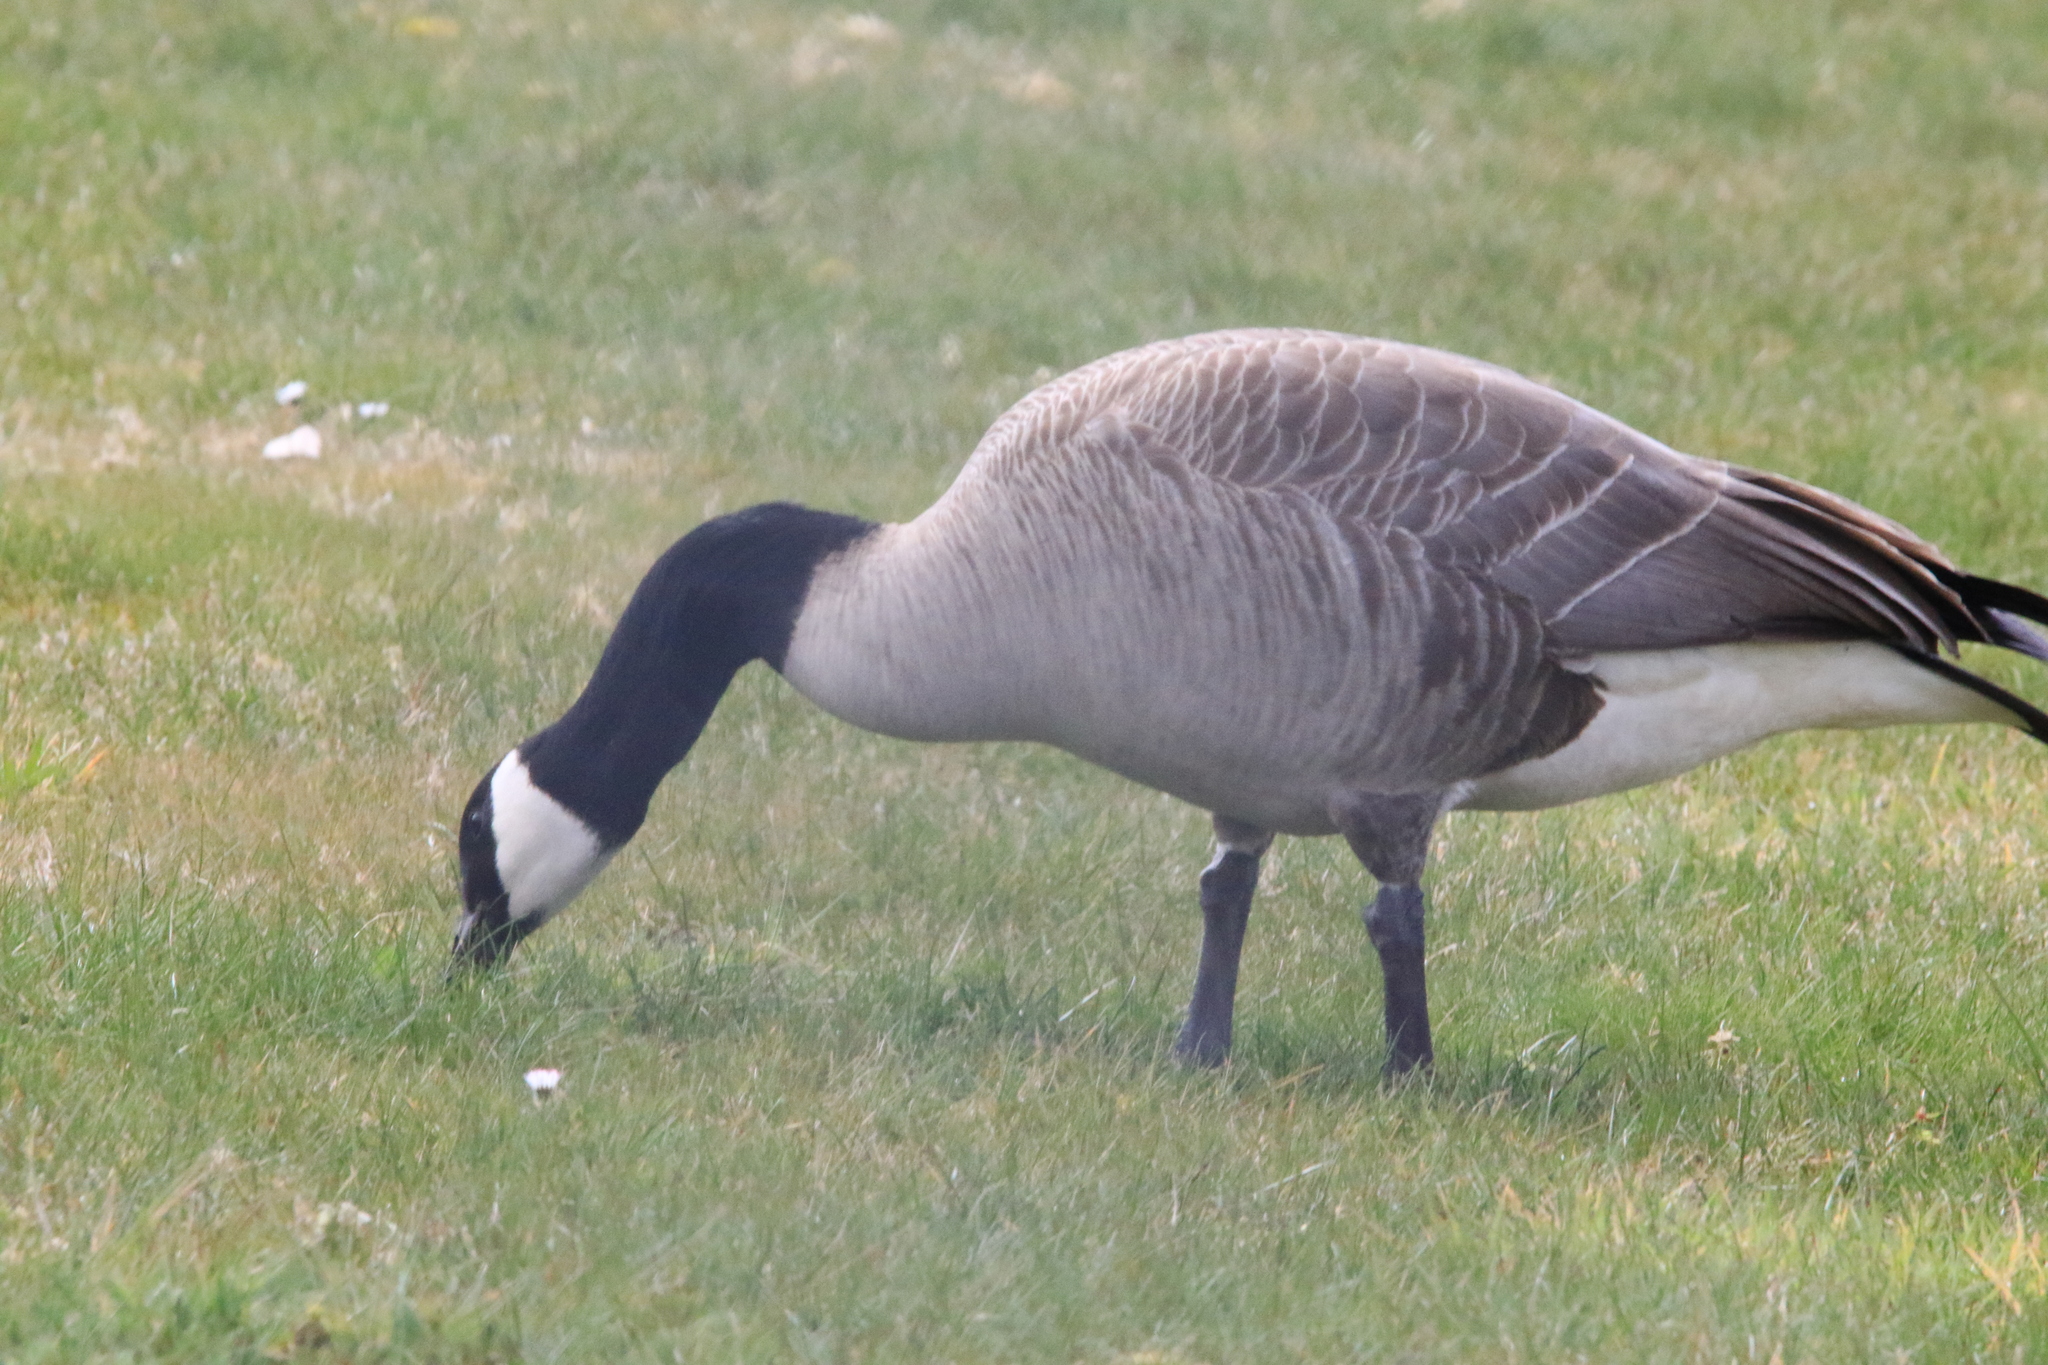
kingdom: Animalia
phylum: Chordata
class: Aves
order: Anseriformes
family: Anatidae
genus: Branta
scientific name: Branta canadensis
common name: Canada goose
